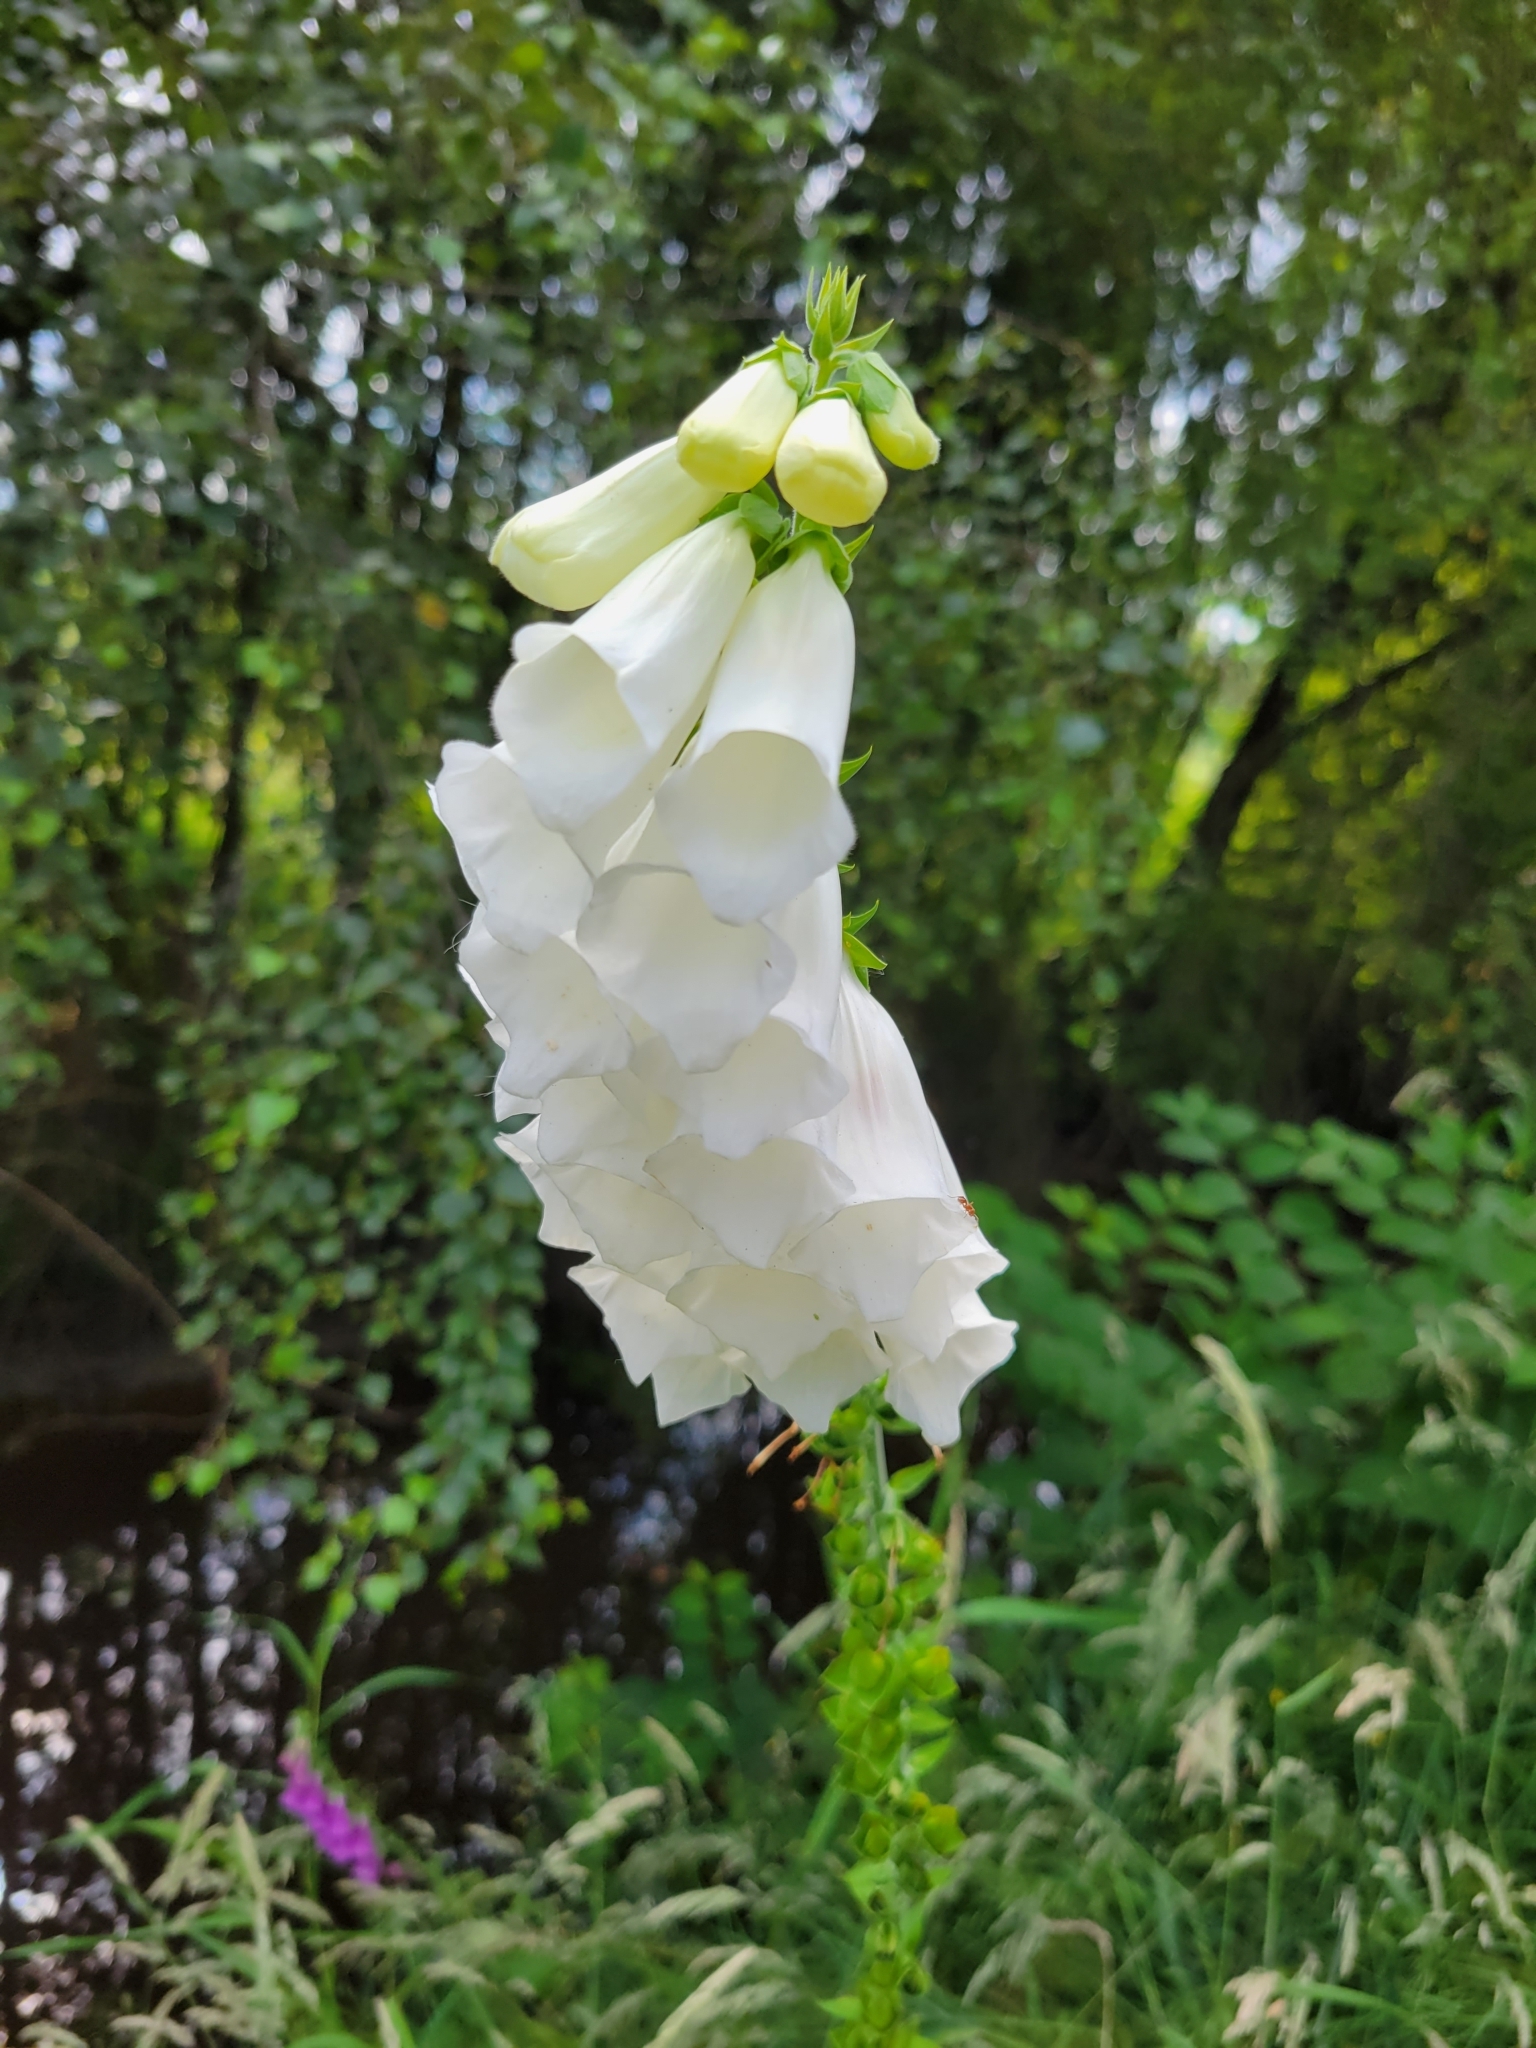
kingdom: Plantae
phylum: Tracheophyta
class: Magnoliopsida
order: Lamiales
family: Plantaginaceae
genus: Digitalis
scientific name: Digitalis purpurea
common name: Foxglove
